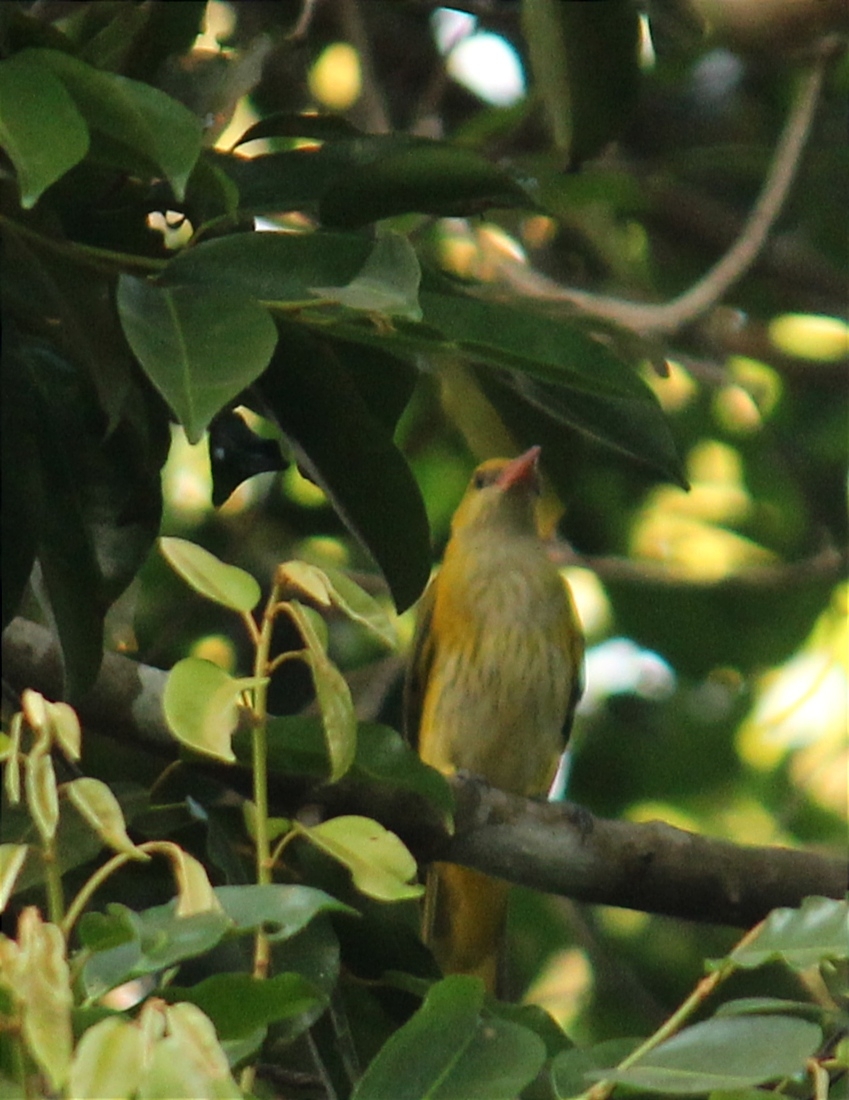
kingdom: Animalia
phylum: Chordata
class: Aves
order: Passeriformes
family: Oriolidae
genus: Oriolus
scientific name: Oriolus kundoo
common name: Indian golden oriole
